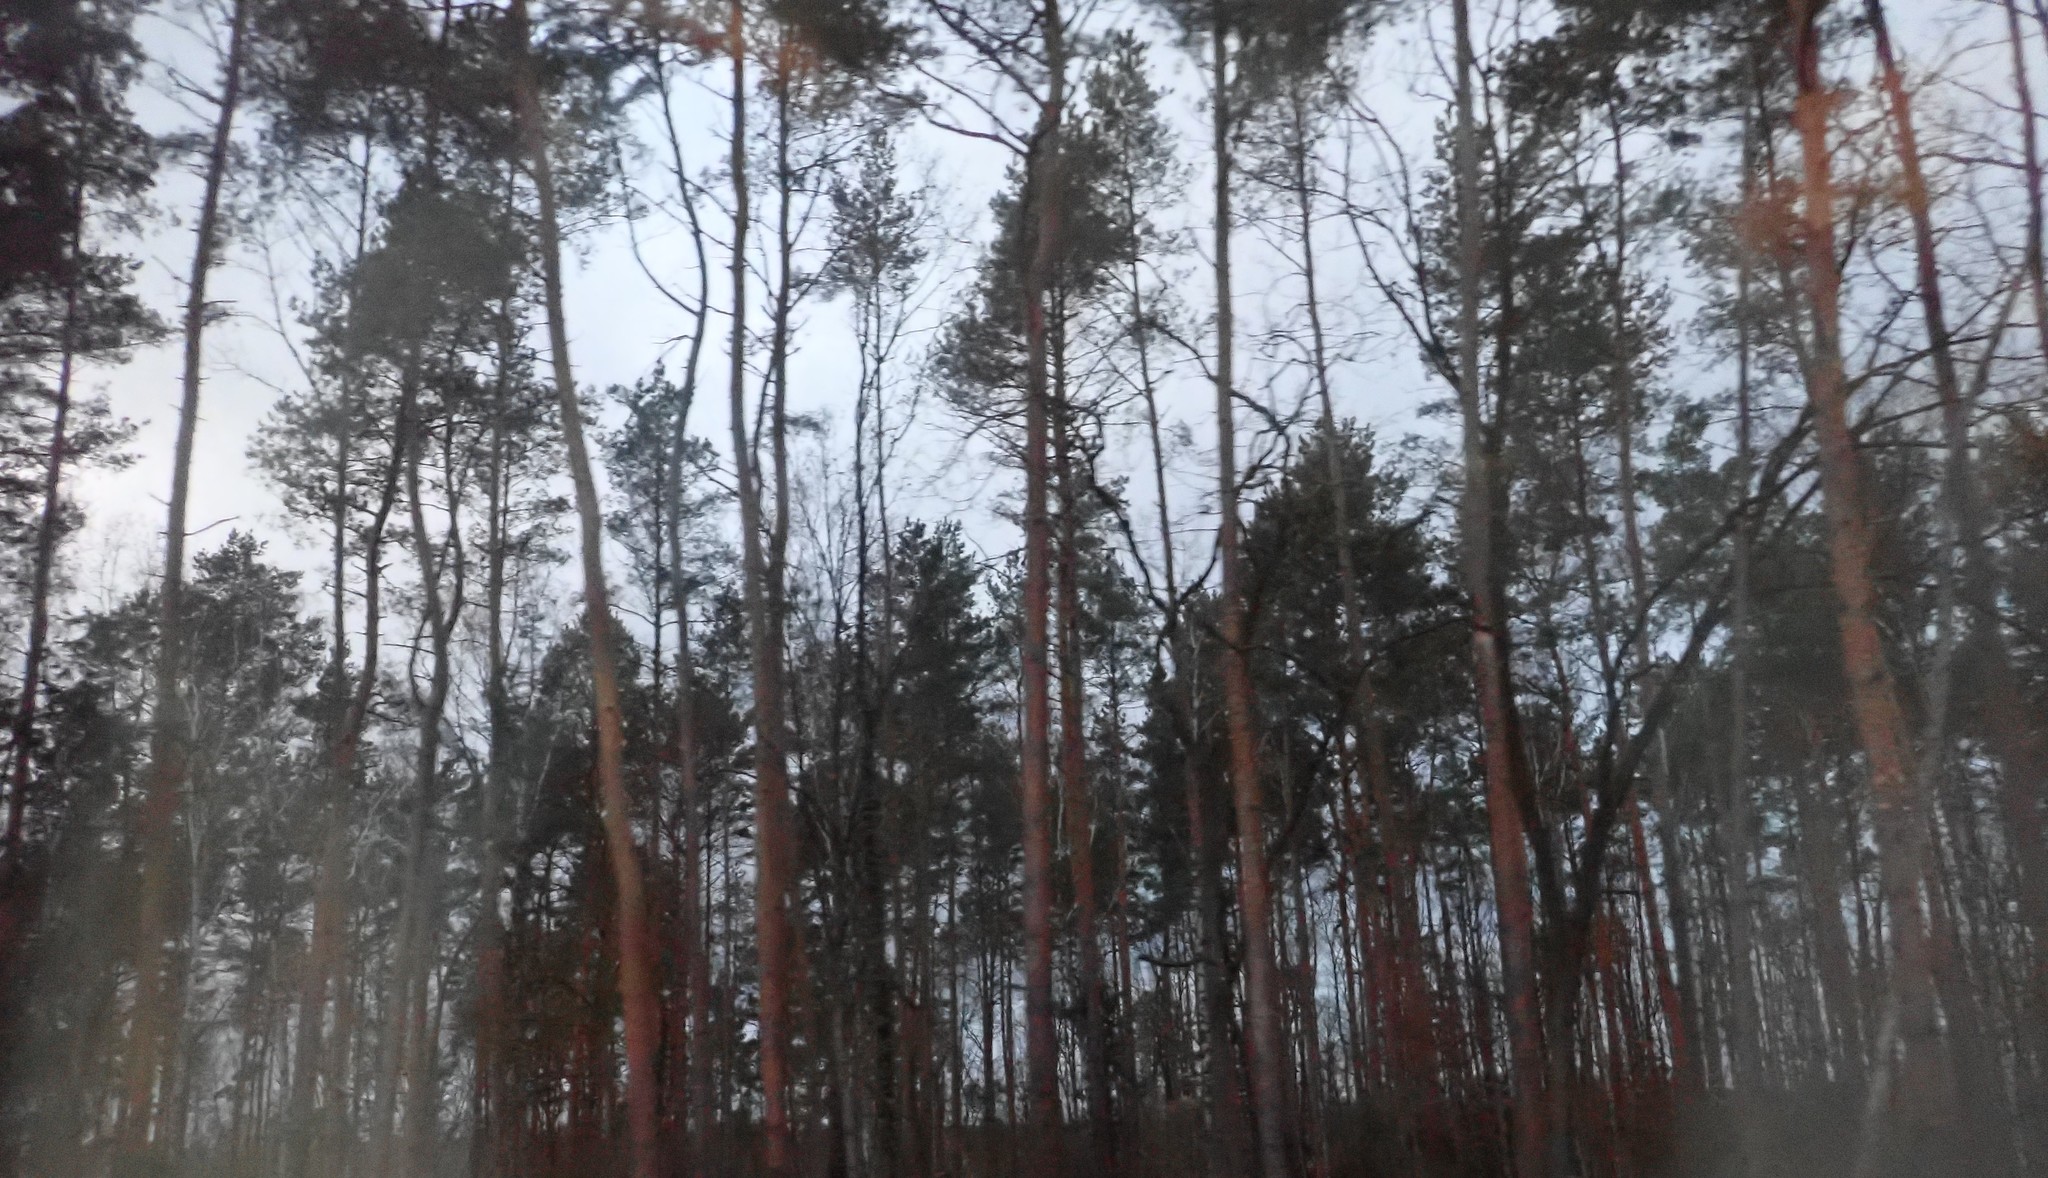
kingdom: Plantae
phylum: Tracheophyta
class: Pinopsida
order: Pinales
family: Pinaceae
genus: Pinus
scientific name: Pinus sylvestris
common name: Scots pine
